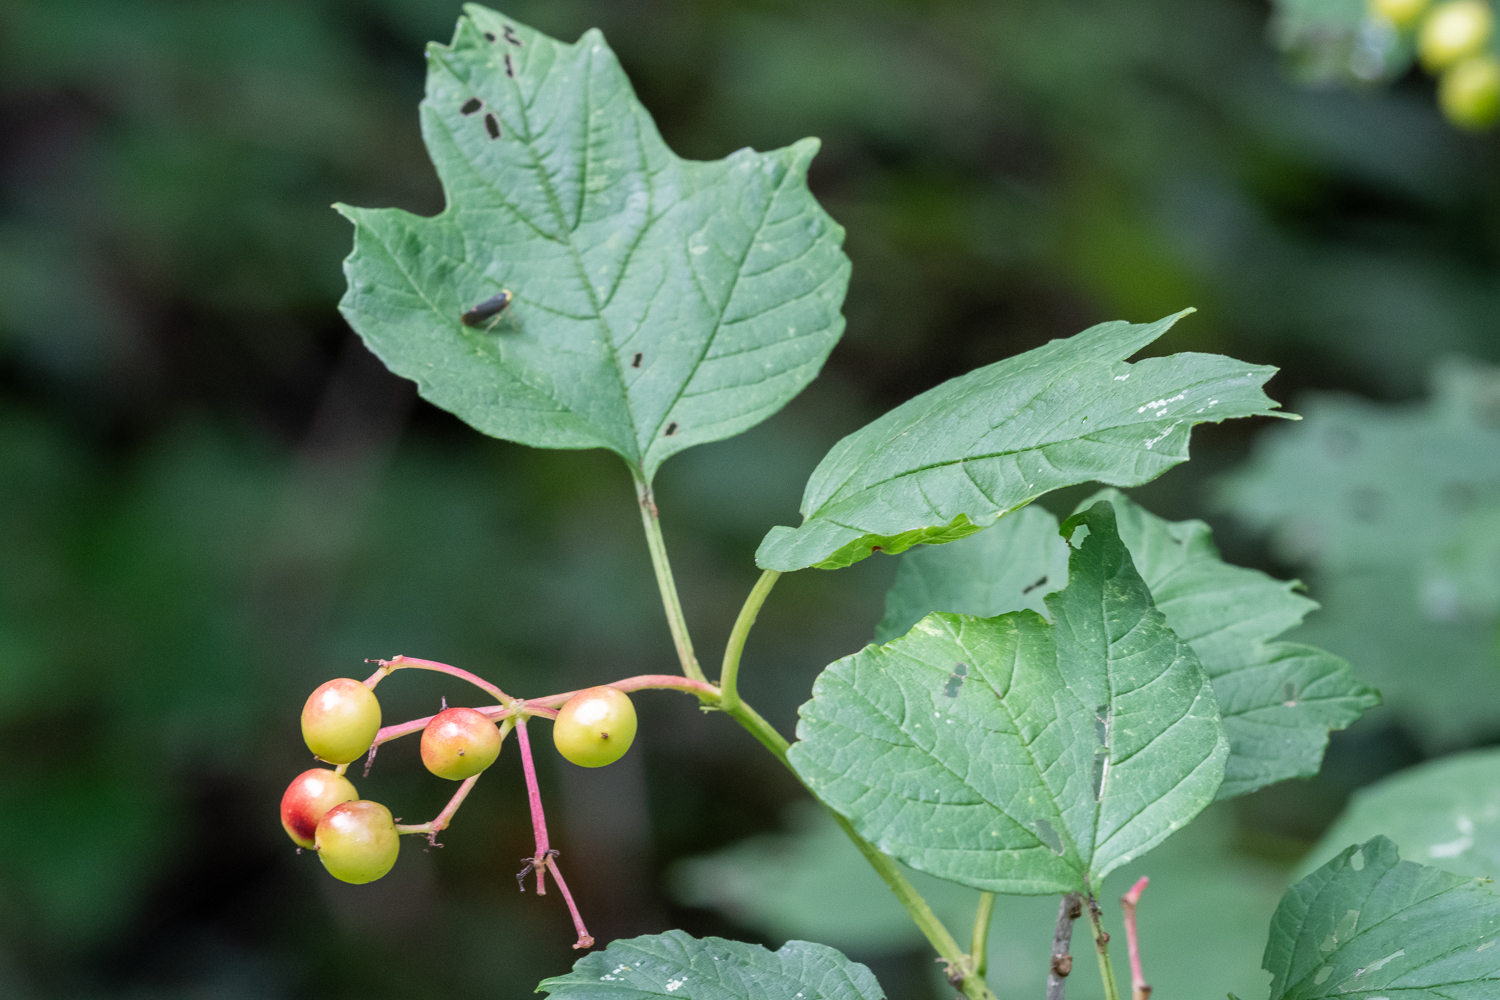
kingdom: Plantae
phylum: Tracheophyta
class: Magnoliopsida
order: Dipsacales
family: Viburnaceae
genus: Viburnum
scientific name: Viburnum opulus
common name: Guelder-rose
